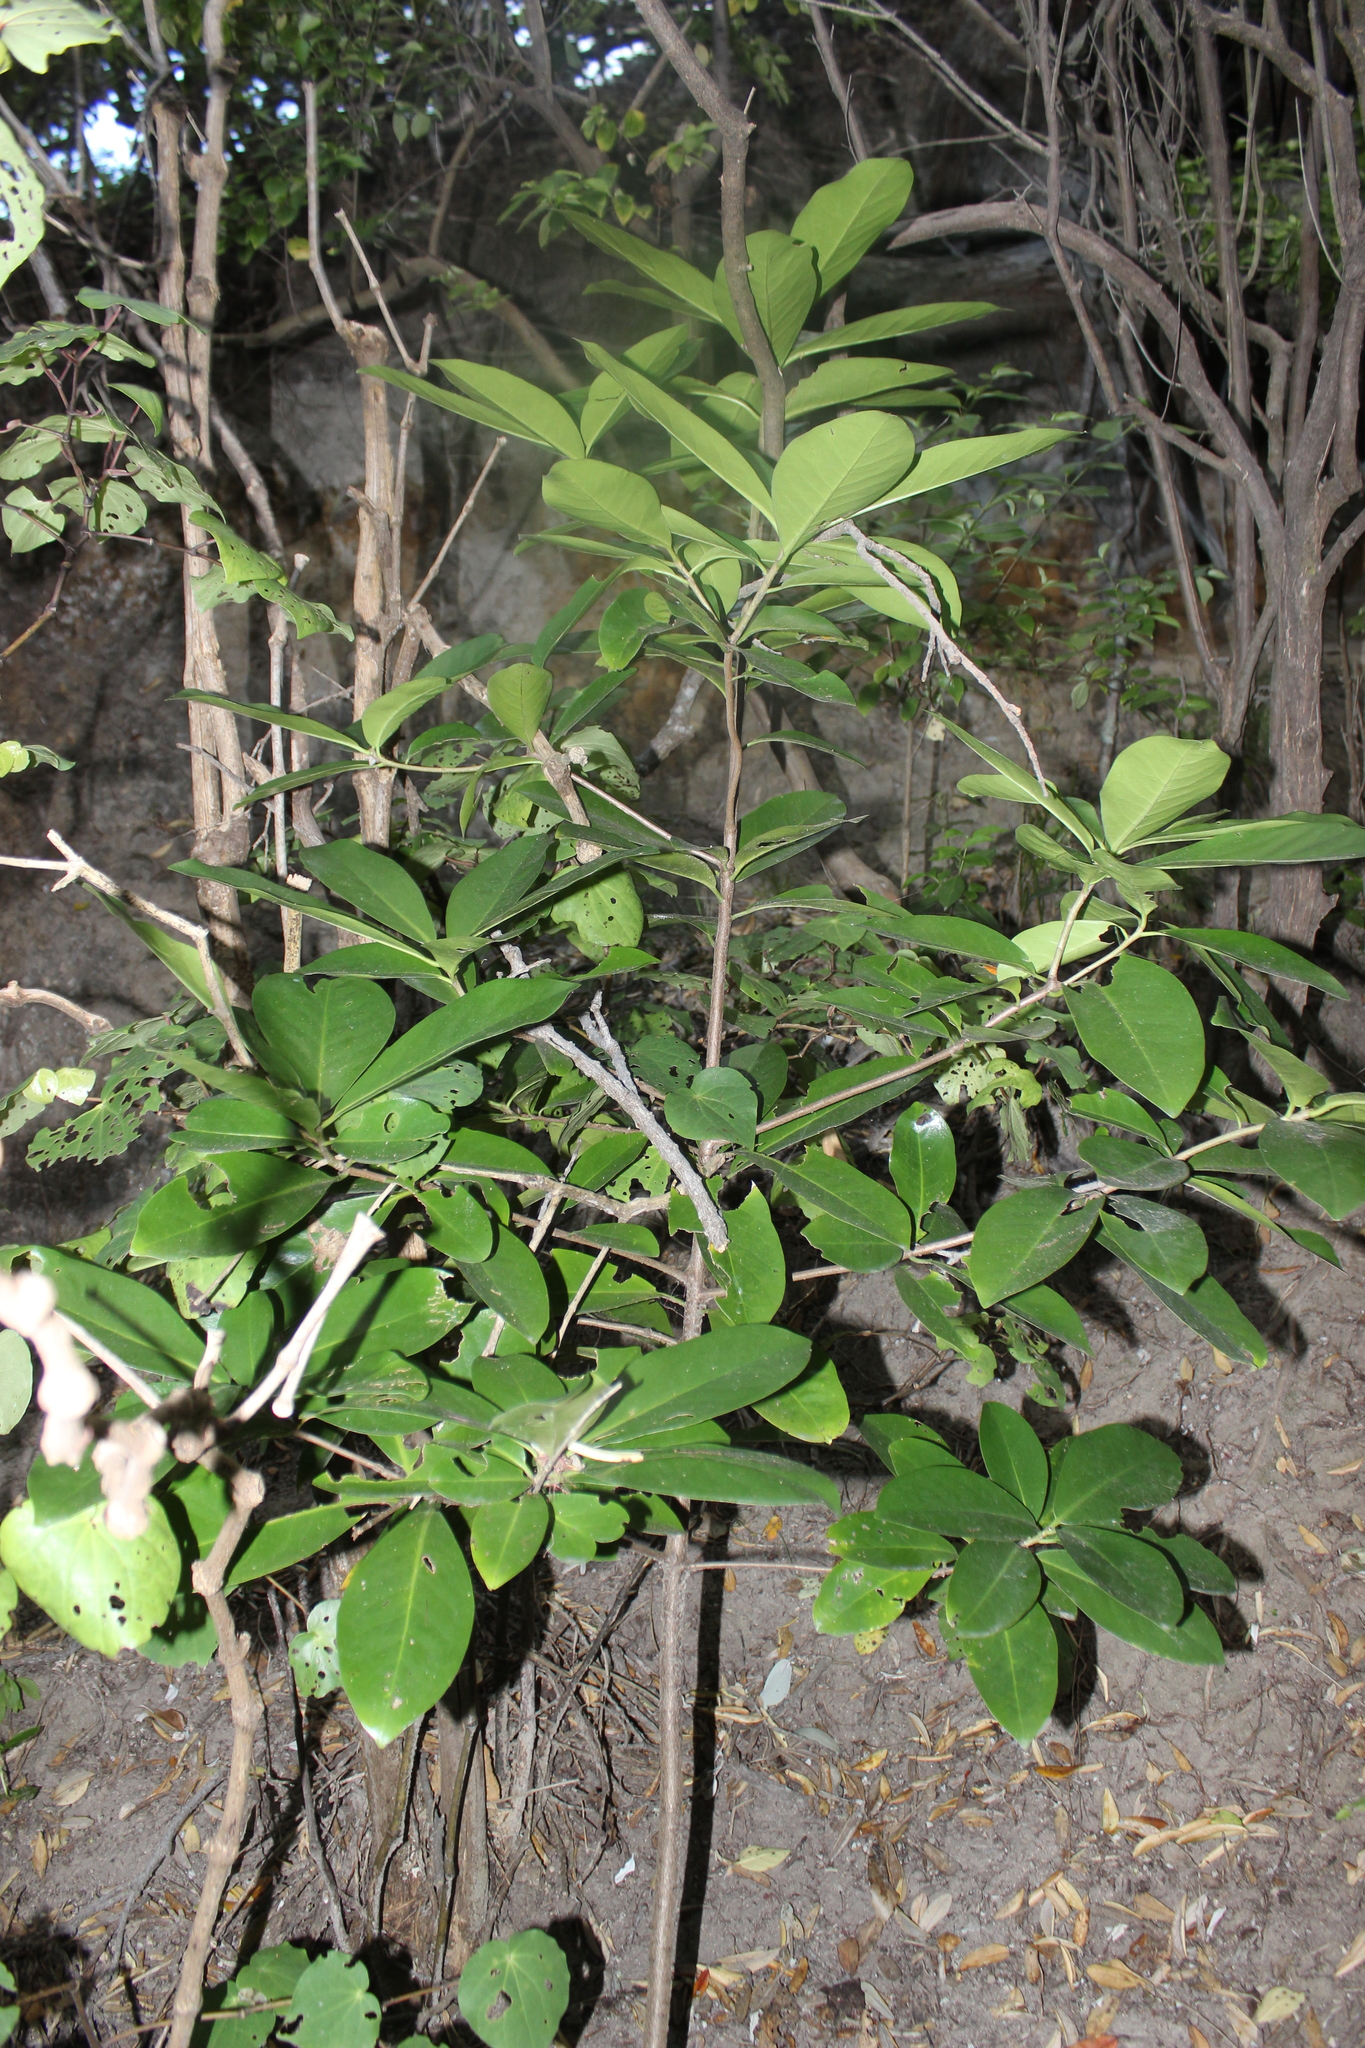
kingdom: Plantae
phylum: Tracheophyta
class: Magnoliopsida
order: Cucurbitales
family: Corynocarpaceae
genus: Corynocarpus
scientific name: Corynocarpus laevigatus
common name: New zealand laurel
